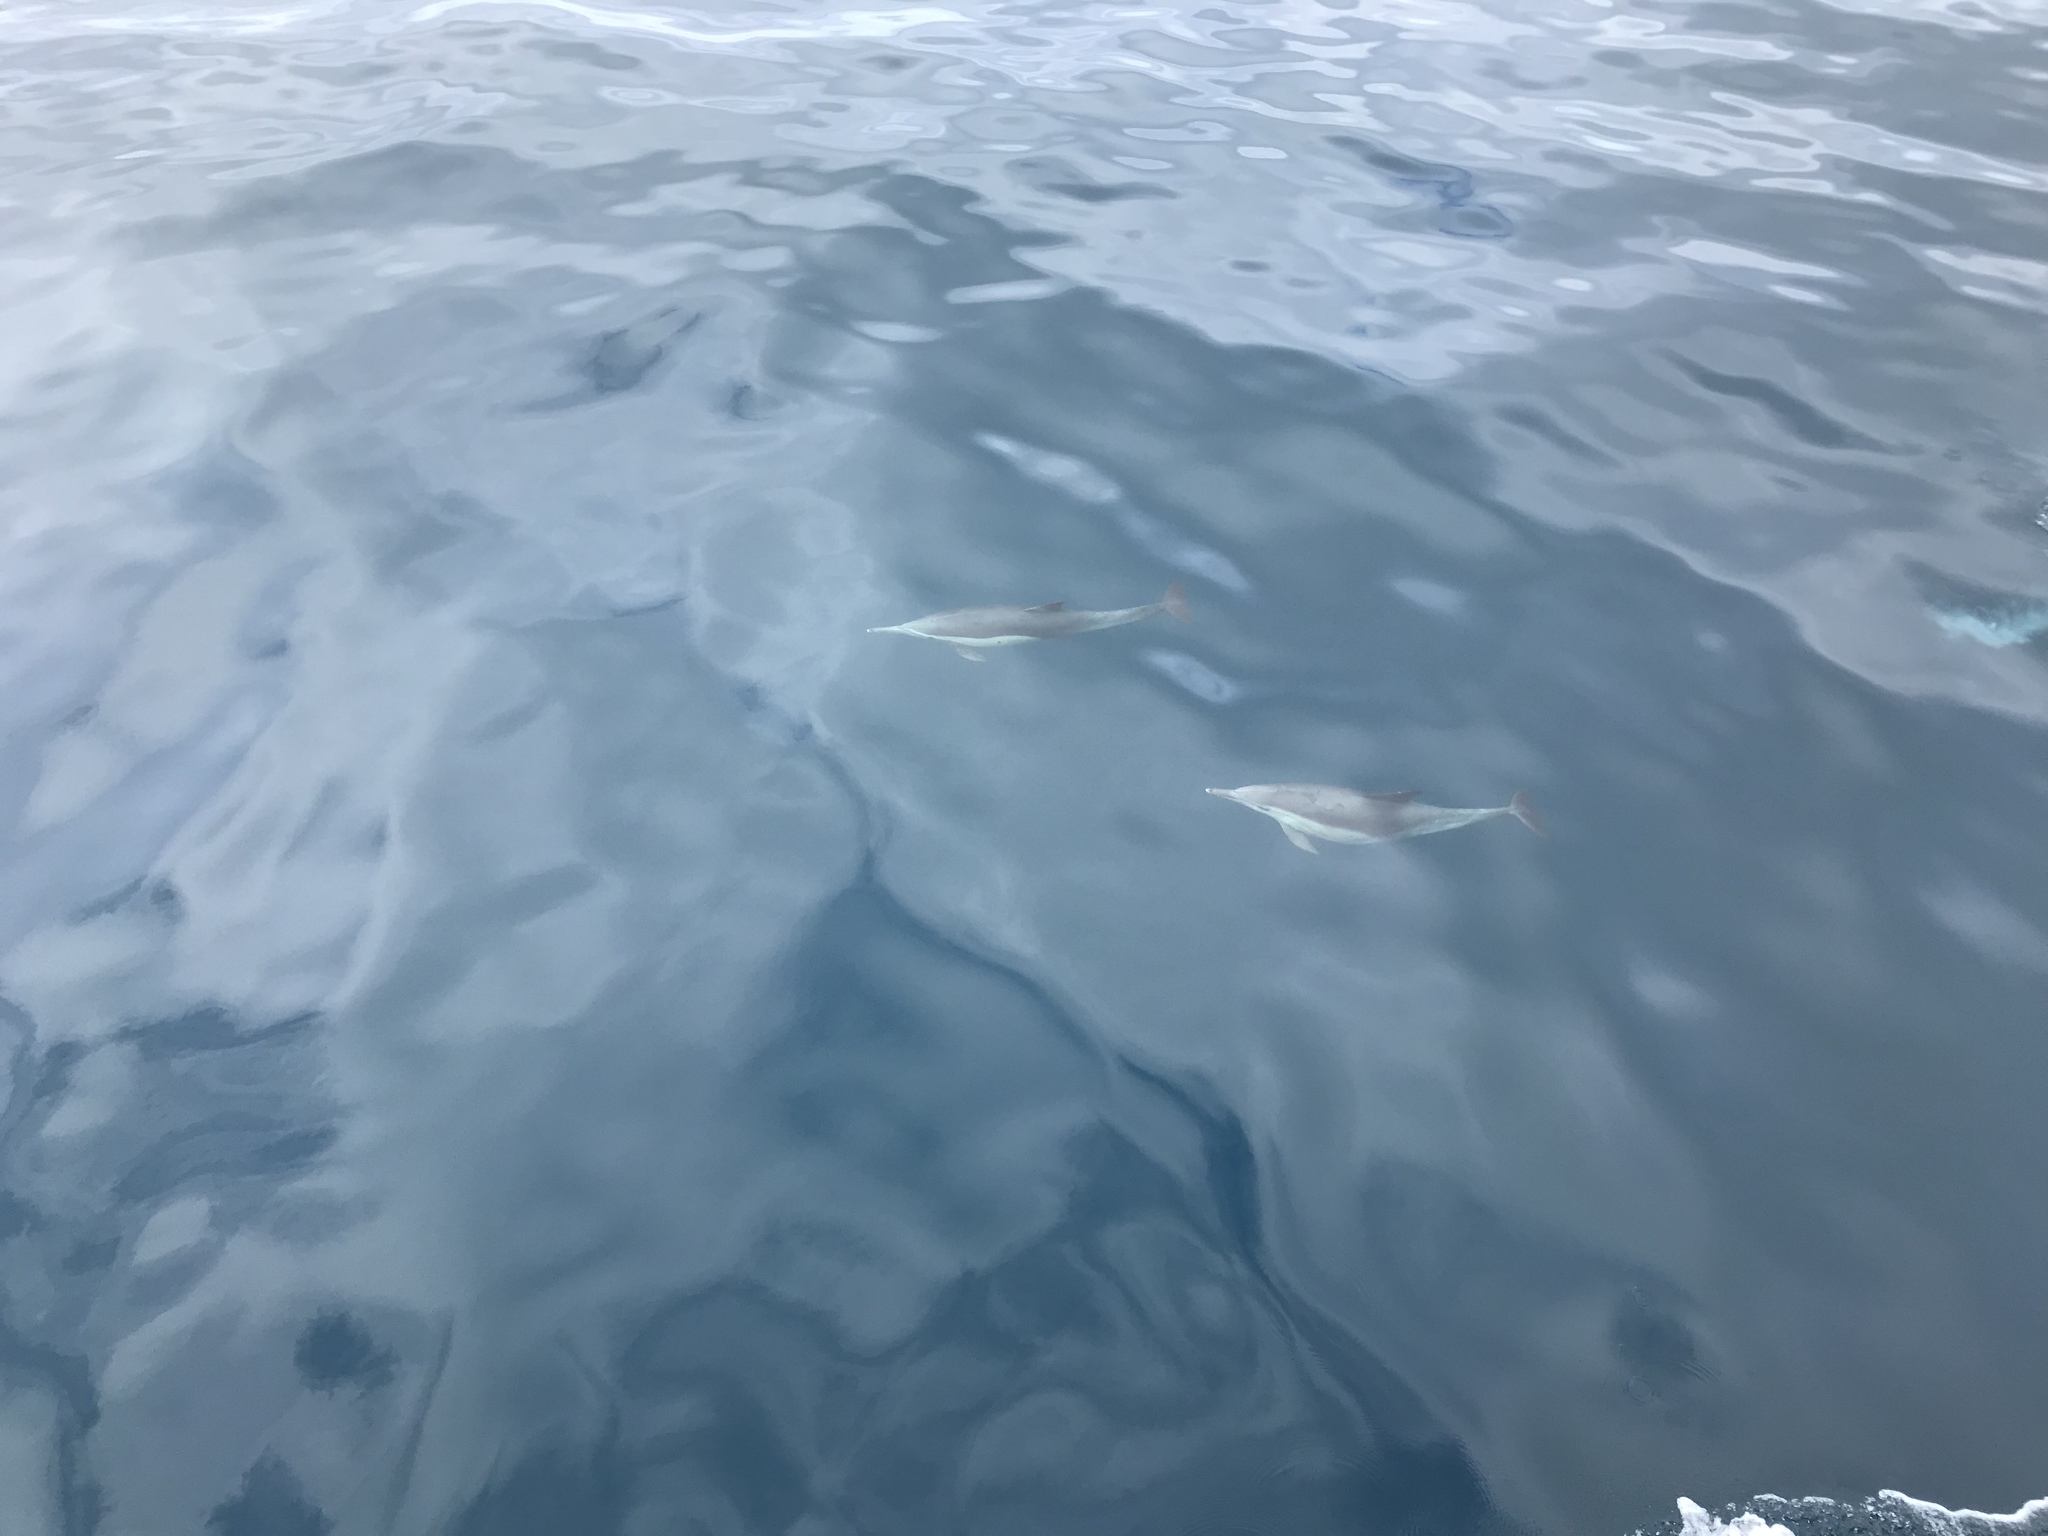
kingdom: Animalia
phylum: Chordata
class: Mammalia
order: Cetacea
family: Delphinidae
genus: Delphinus
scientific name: Delphinus delphis
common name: Common dolphin
